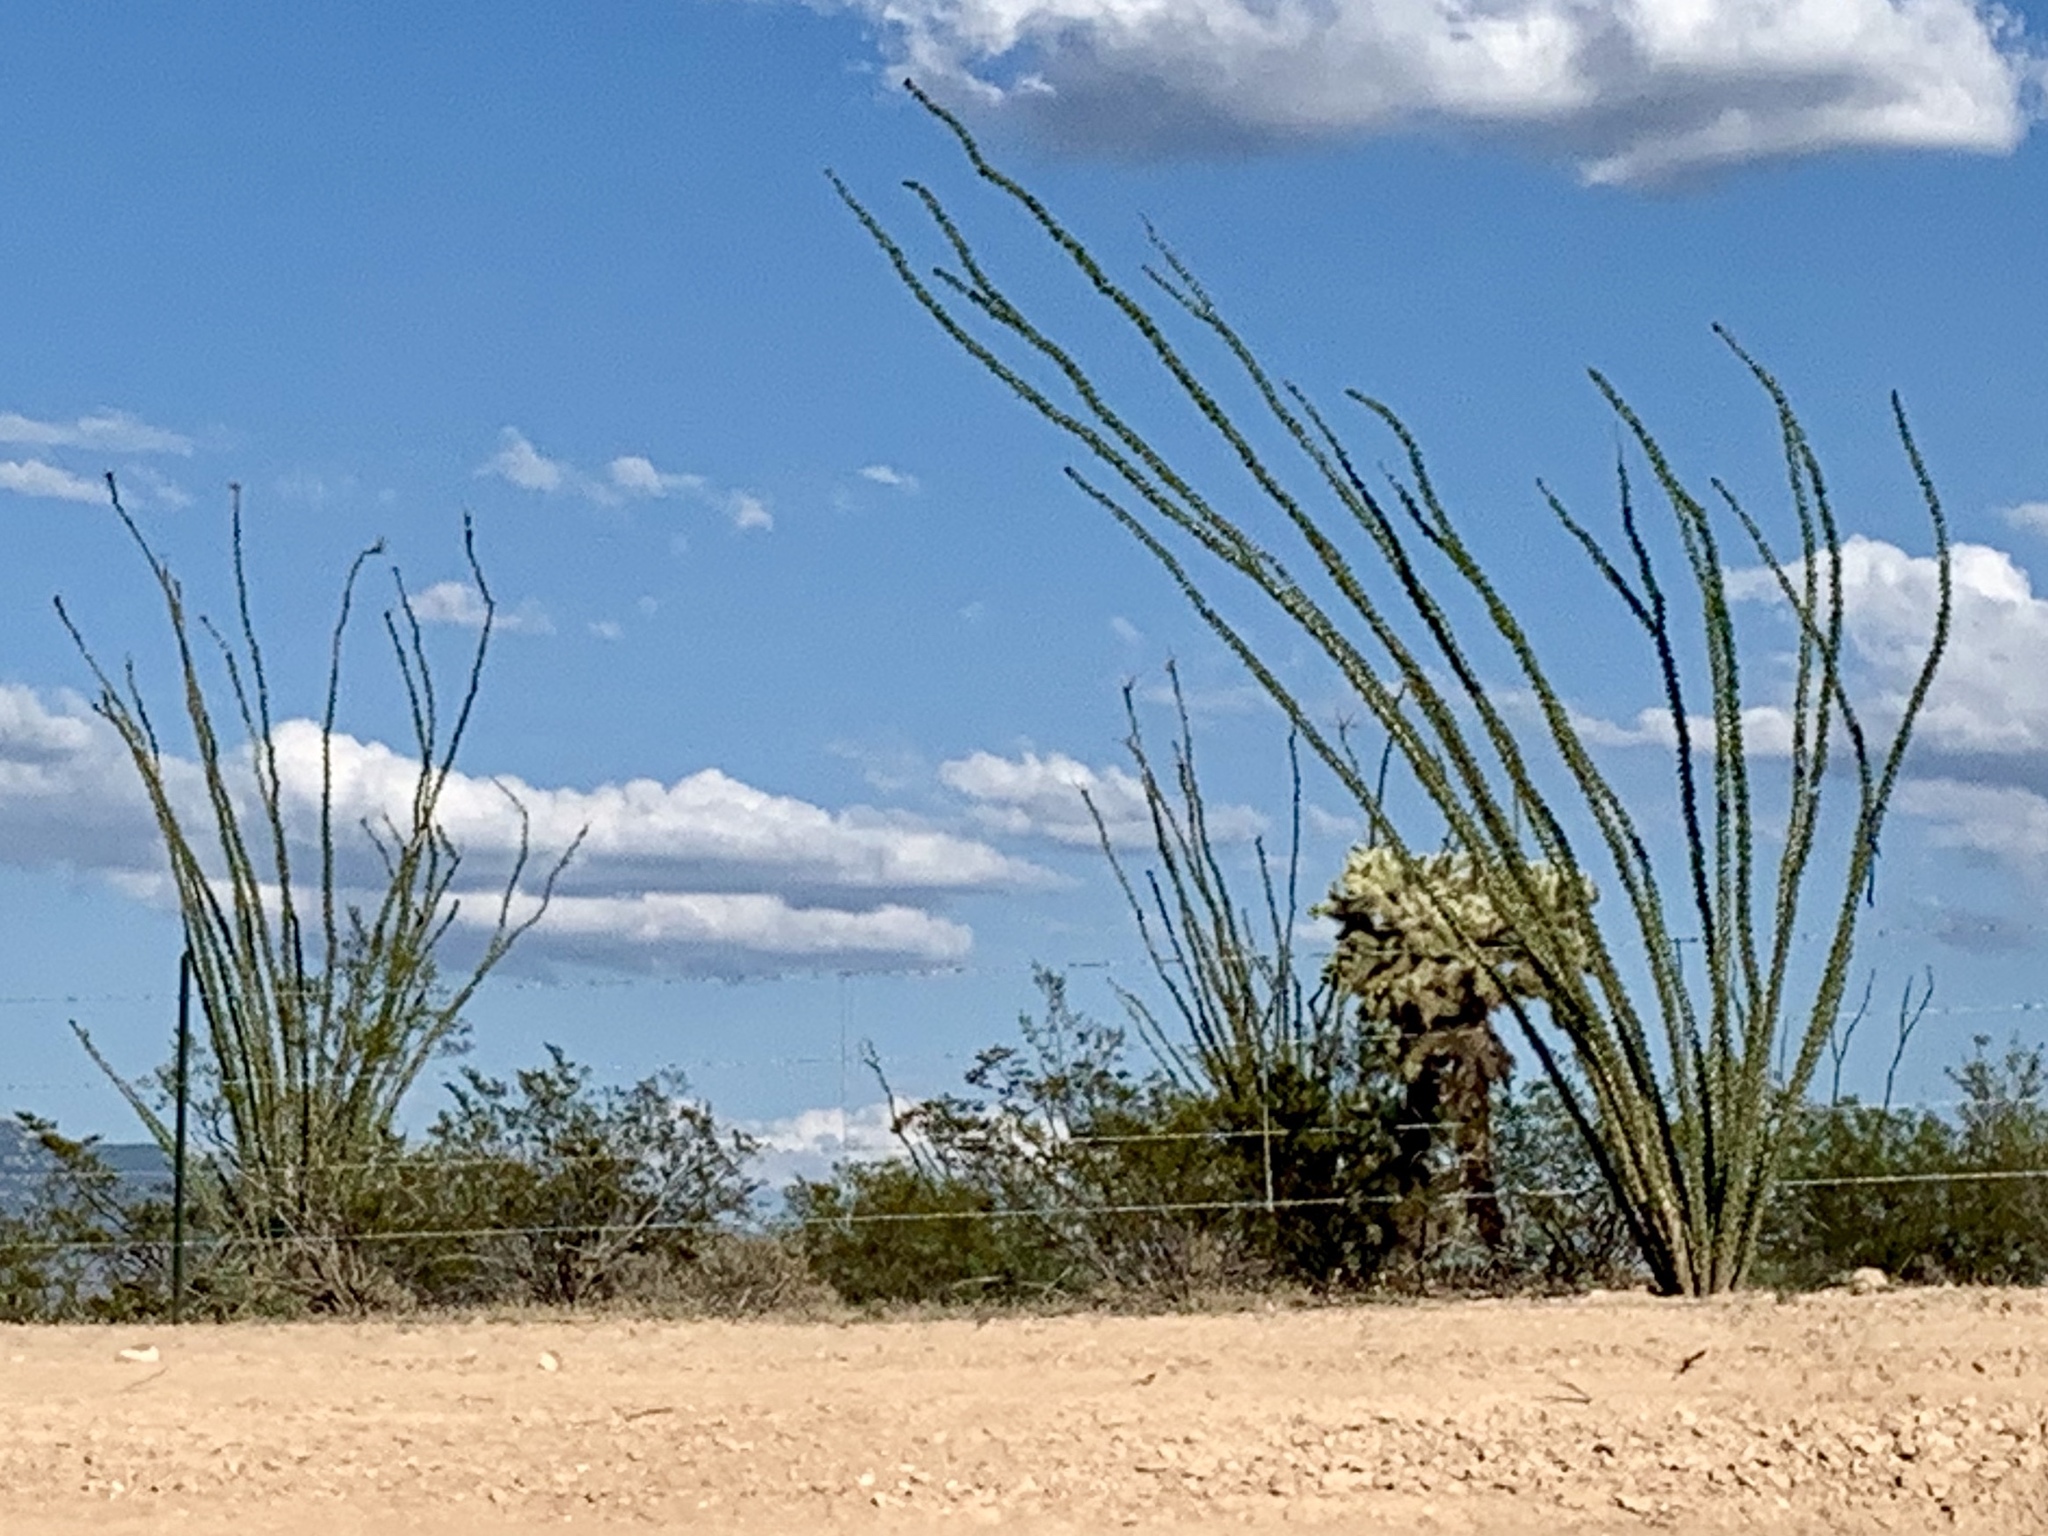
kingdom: Plantae
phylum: Tracheophyta
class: Magnoliopsida
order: Ericales
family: Fouquieriaceae
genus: Fouquieria
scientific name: Fouquieria splendens
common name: Vine-cactus
